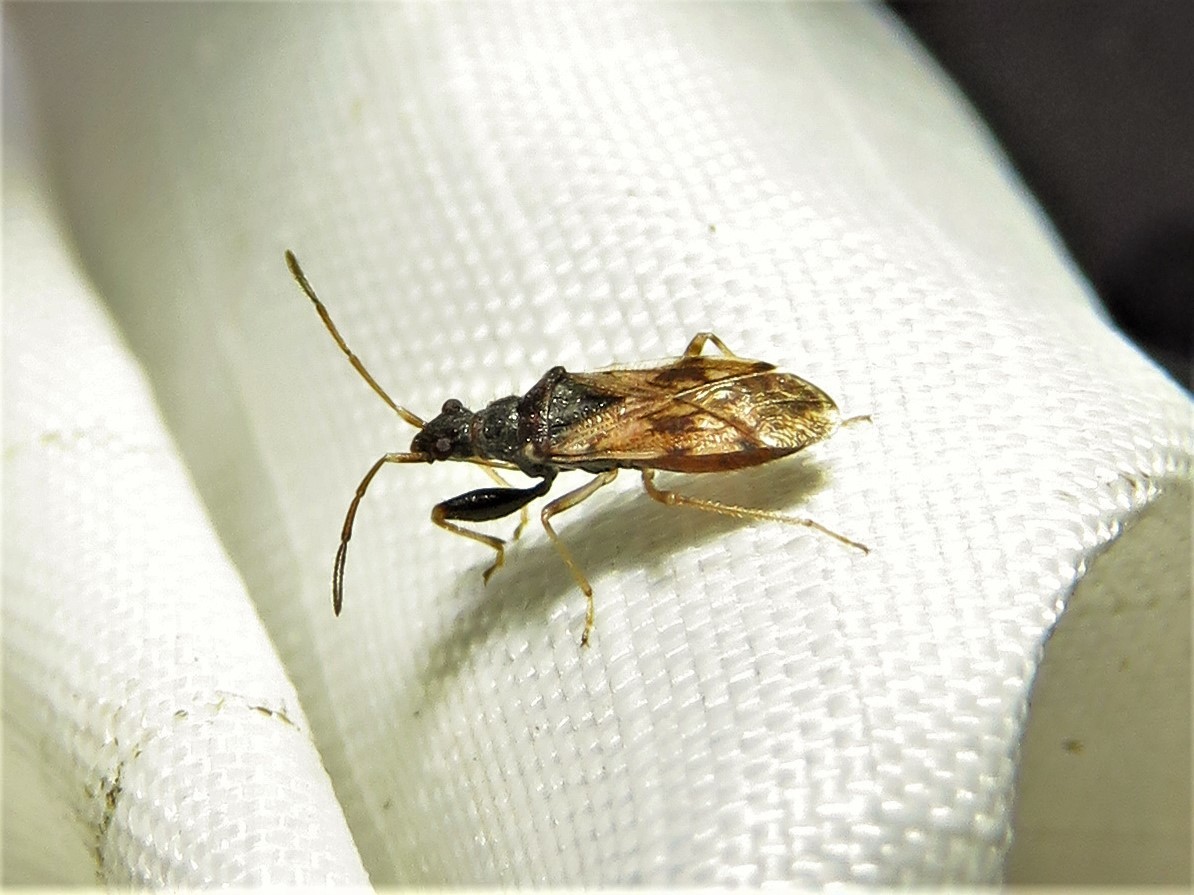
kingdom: Animalia
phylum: Arthropoda
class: Insecta
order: Hemiptera
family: Rhyparochromidae
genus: Pseudopamera
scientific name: Pseudopamera setosa
